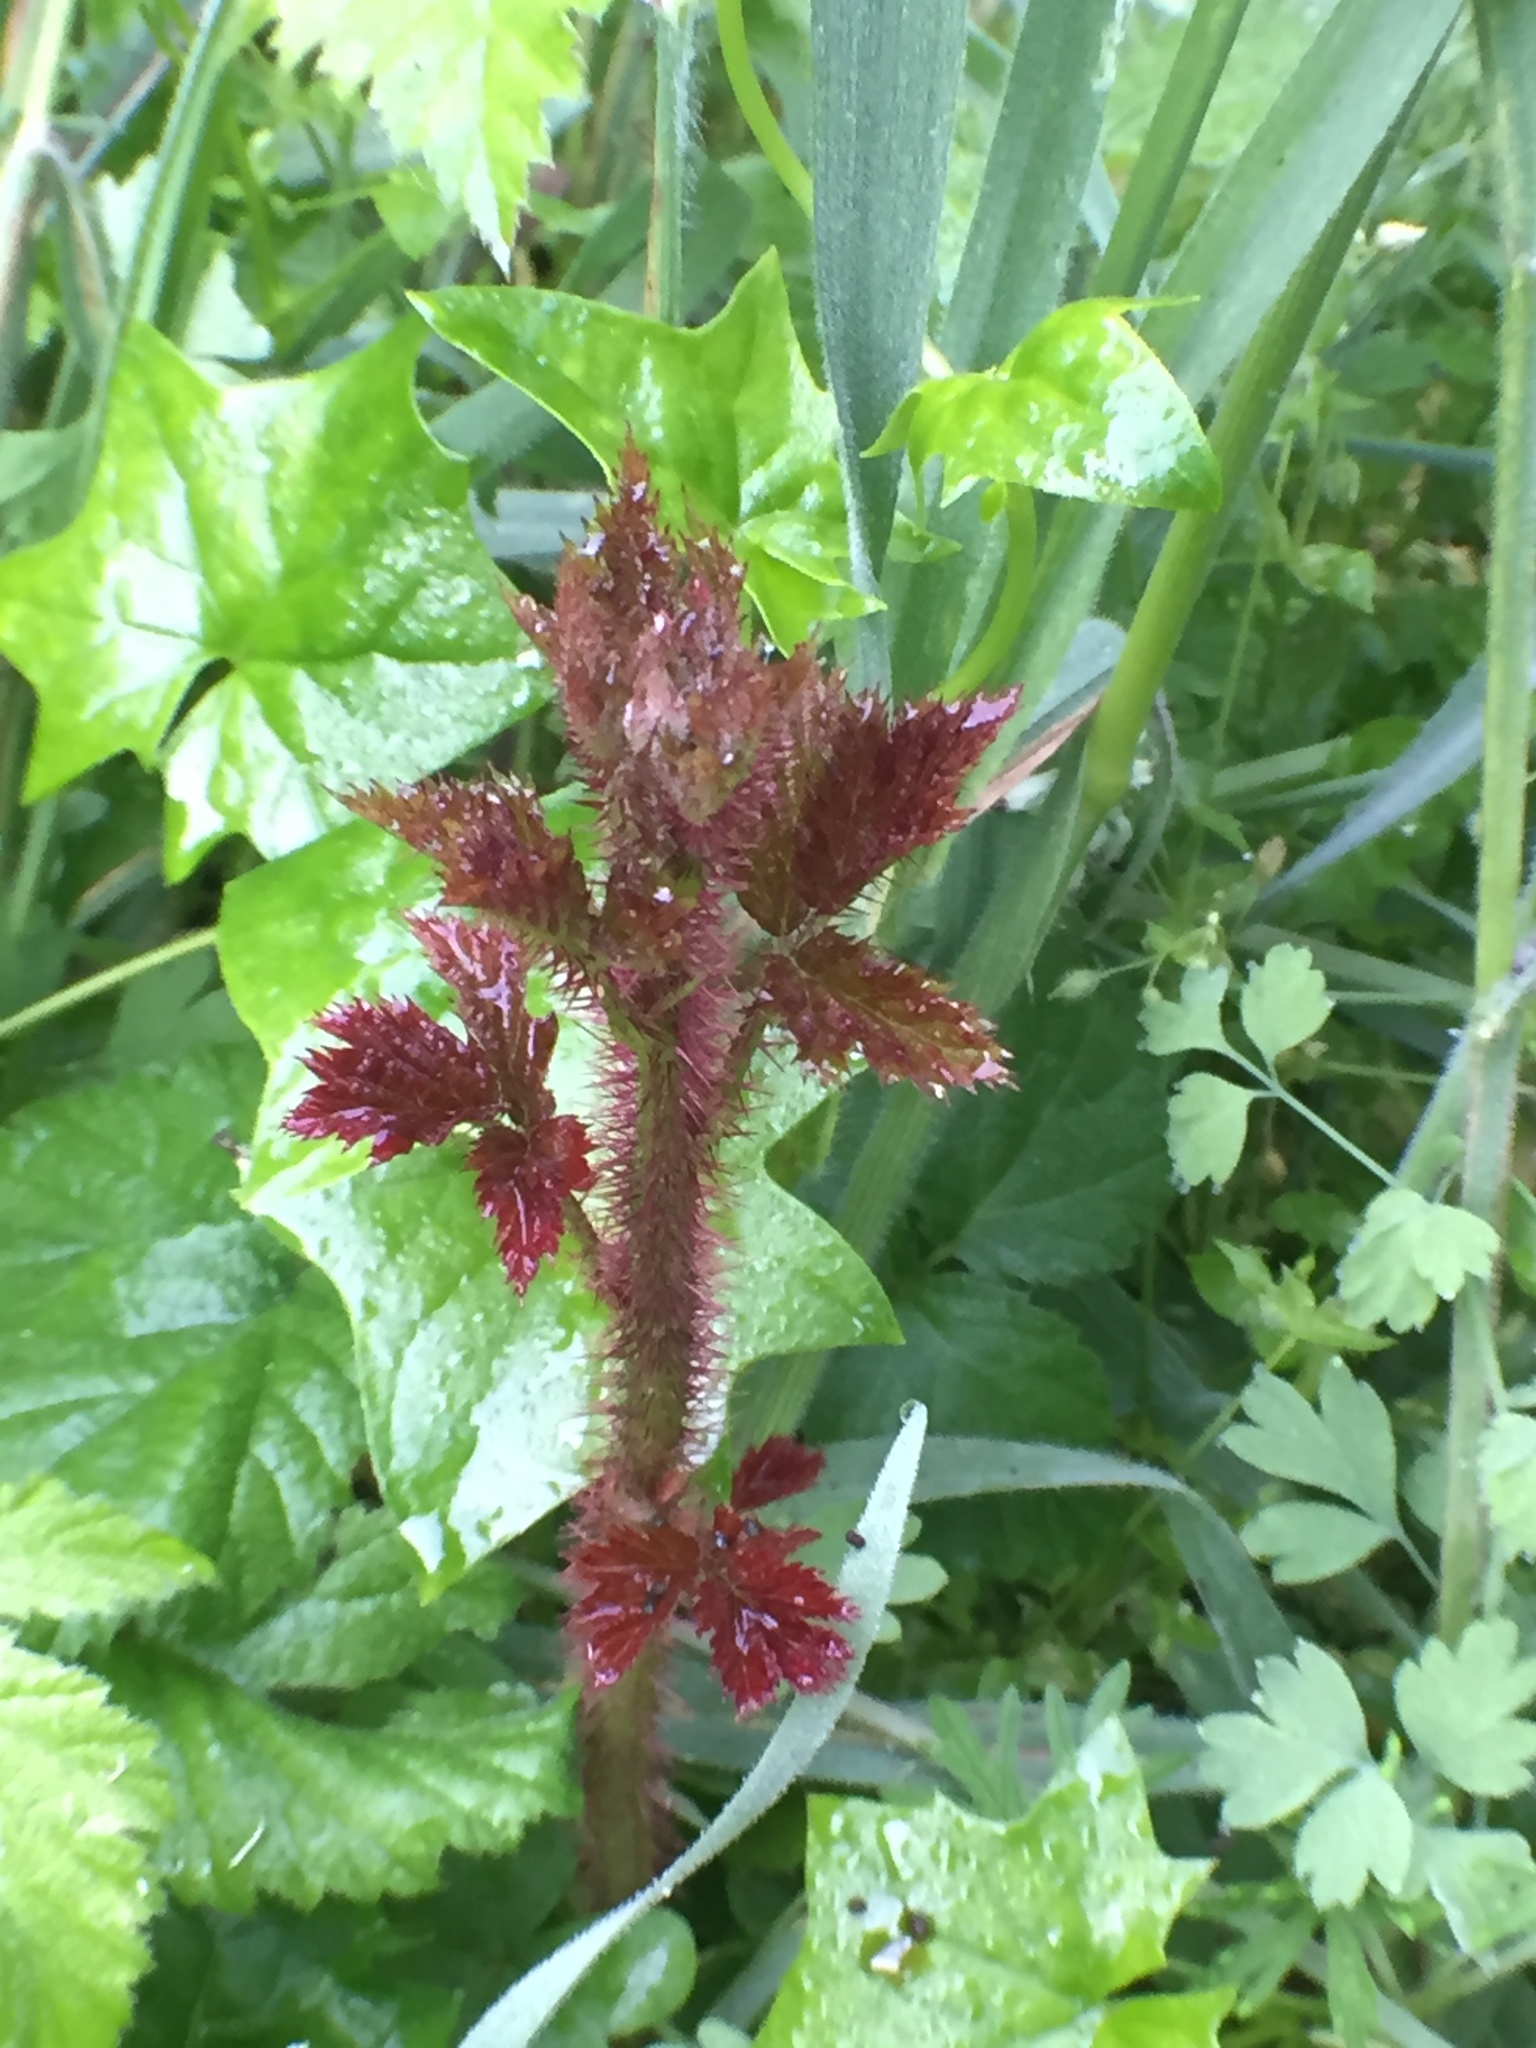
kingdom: Plantae
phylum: Tracheophyta
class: Magnoliopsida
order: Rosales
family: Rosaceae
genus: Rubus
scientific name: Rubus ursinus
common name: Pacific blackberry
